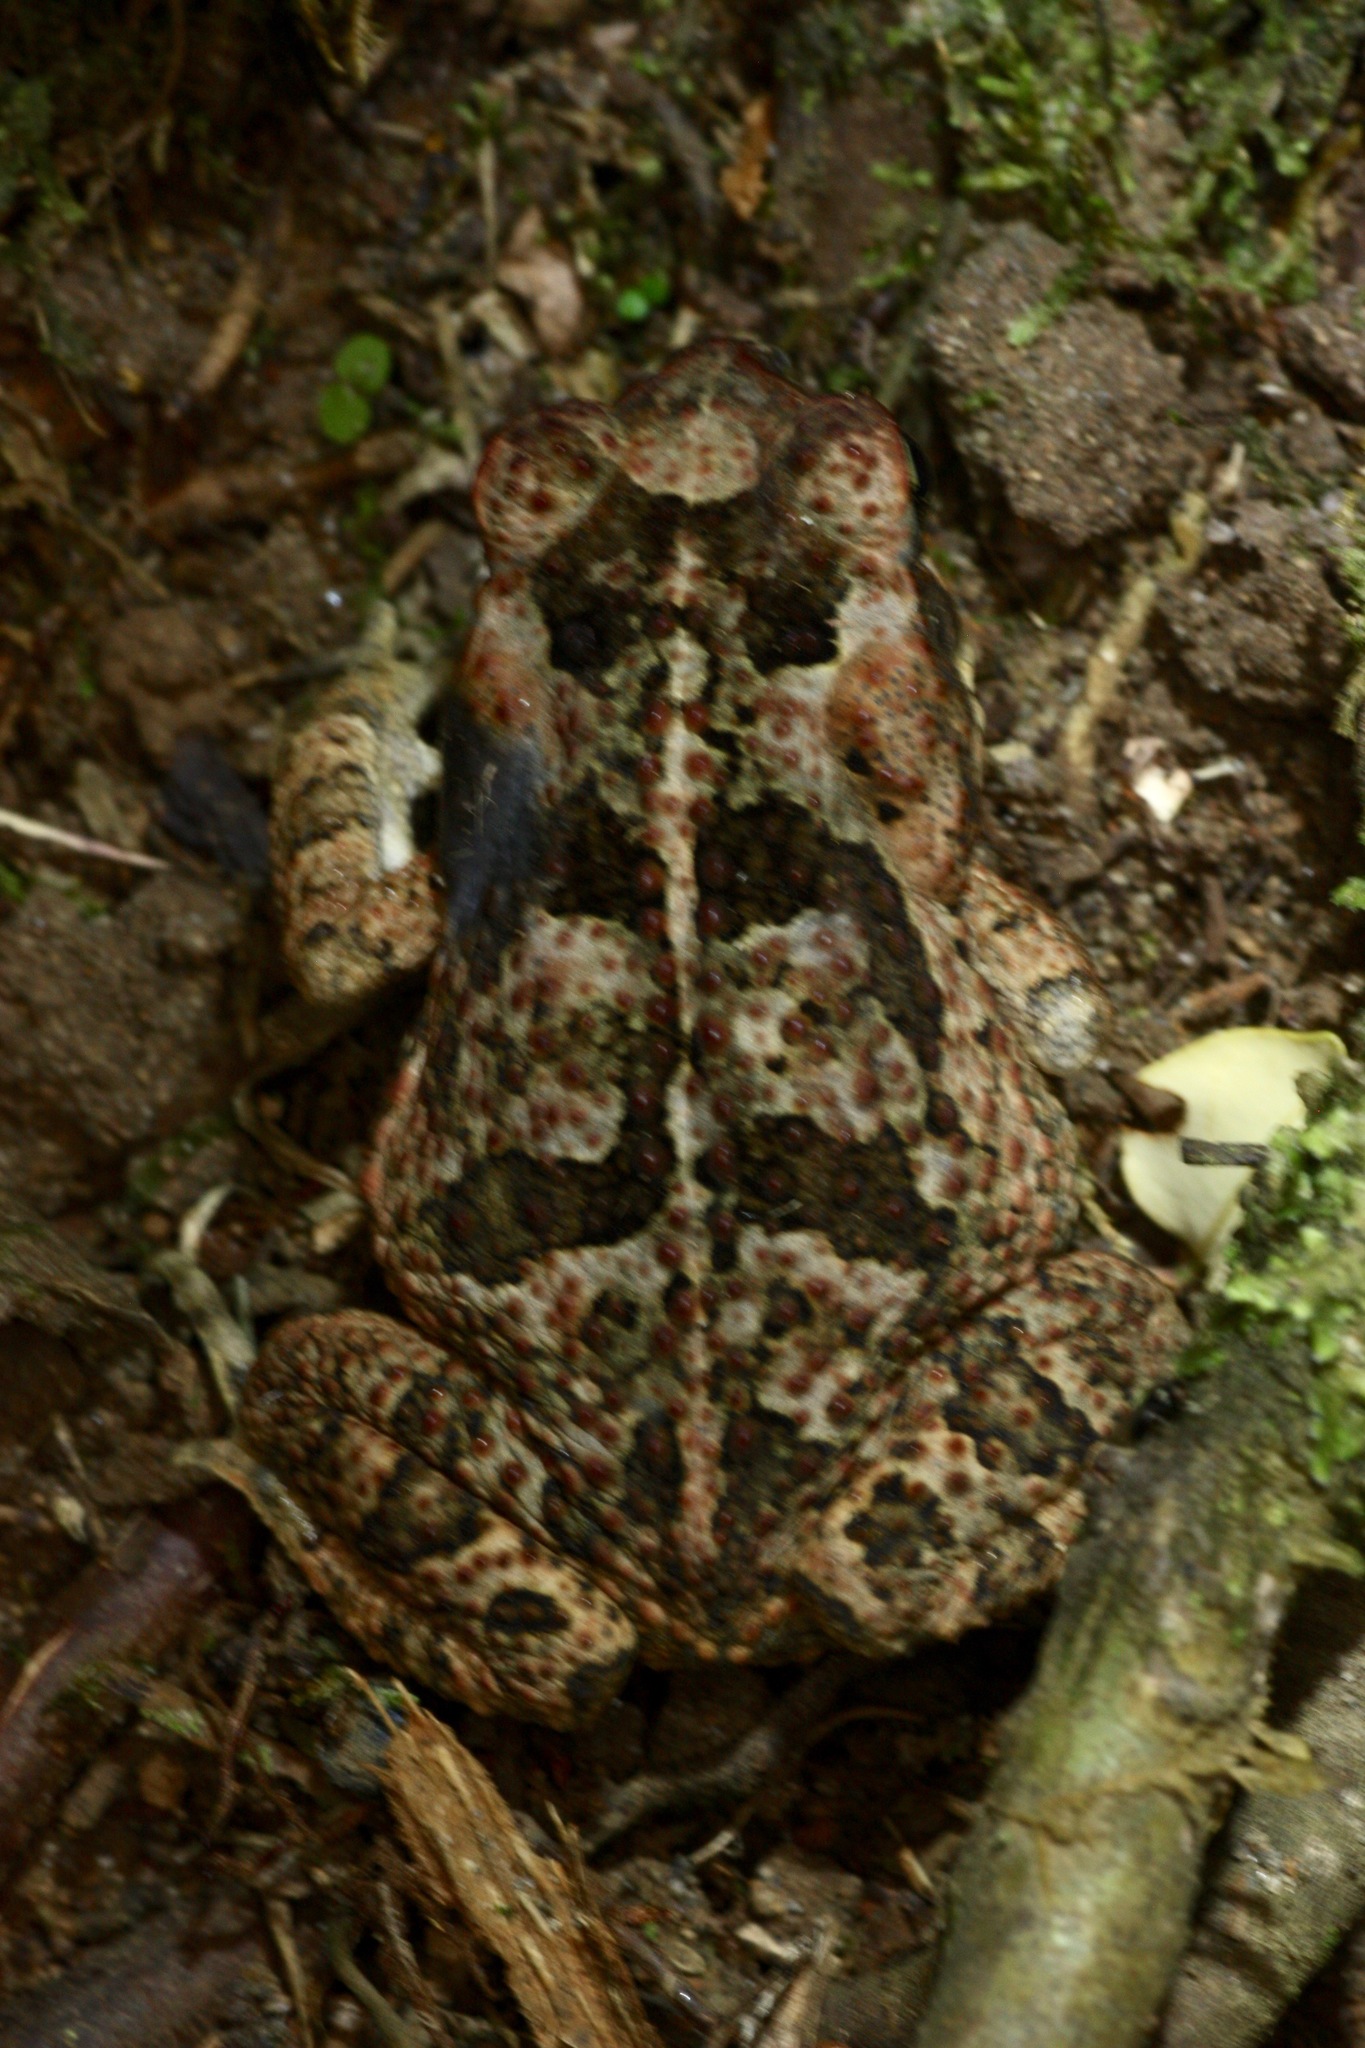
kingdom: Animalia
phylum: Chordata
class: Amphibia
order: Anura
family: Bufonidae
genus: Rhinella
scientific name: Rhinella horribilis
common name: Mesoamerican cane toad
